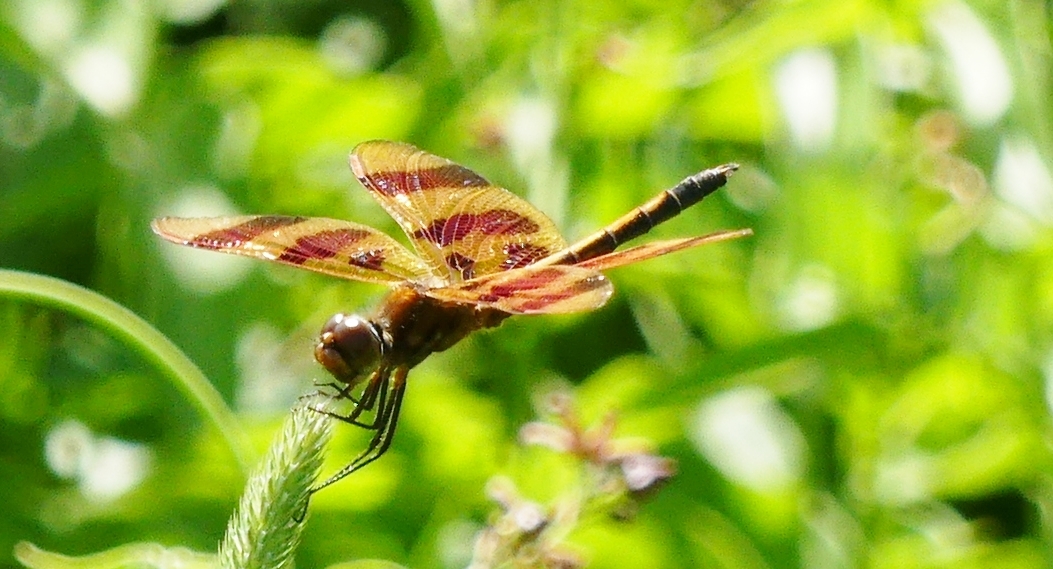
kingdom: Animalia
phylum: Arthropoda
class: Insecta
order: Odonata
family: Libellulidae
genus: Celithemis
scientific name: Celithemis eponina
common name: Halloween pennant
